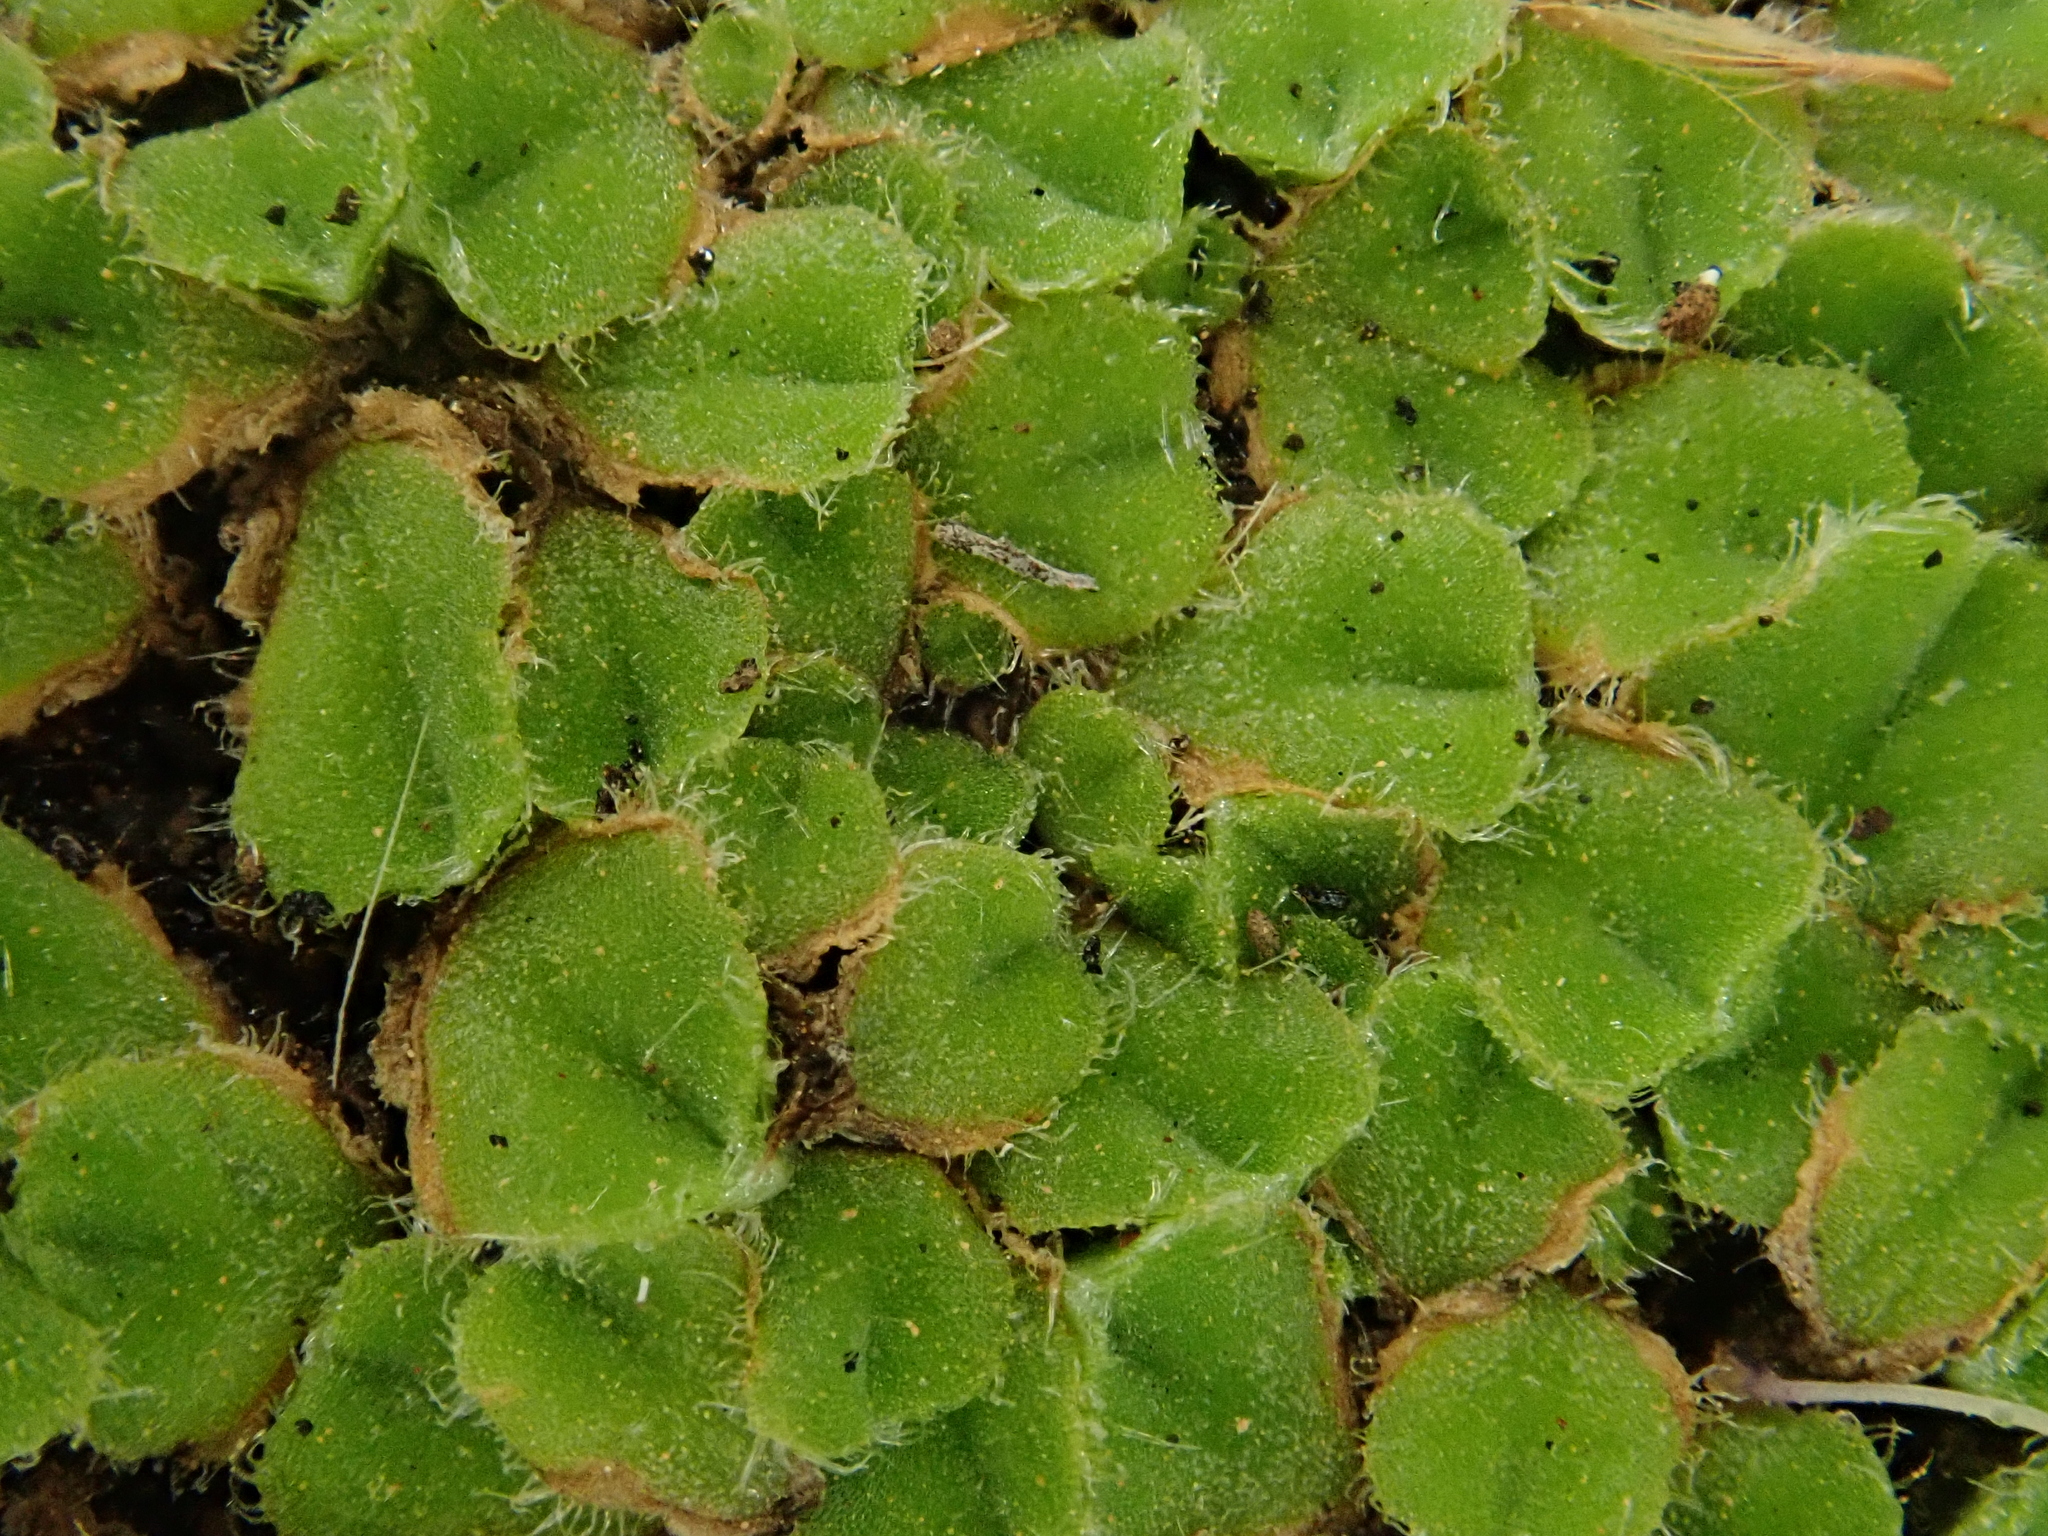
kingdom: Plantae
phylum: Marchantiophyta
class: Marchantiopsida
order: Marchantiales
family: Ricciaceae
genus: Riccia
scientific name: Riccia gougetiana
